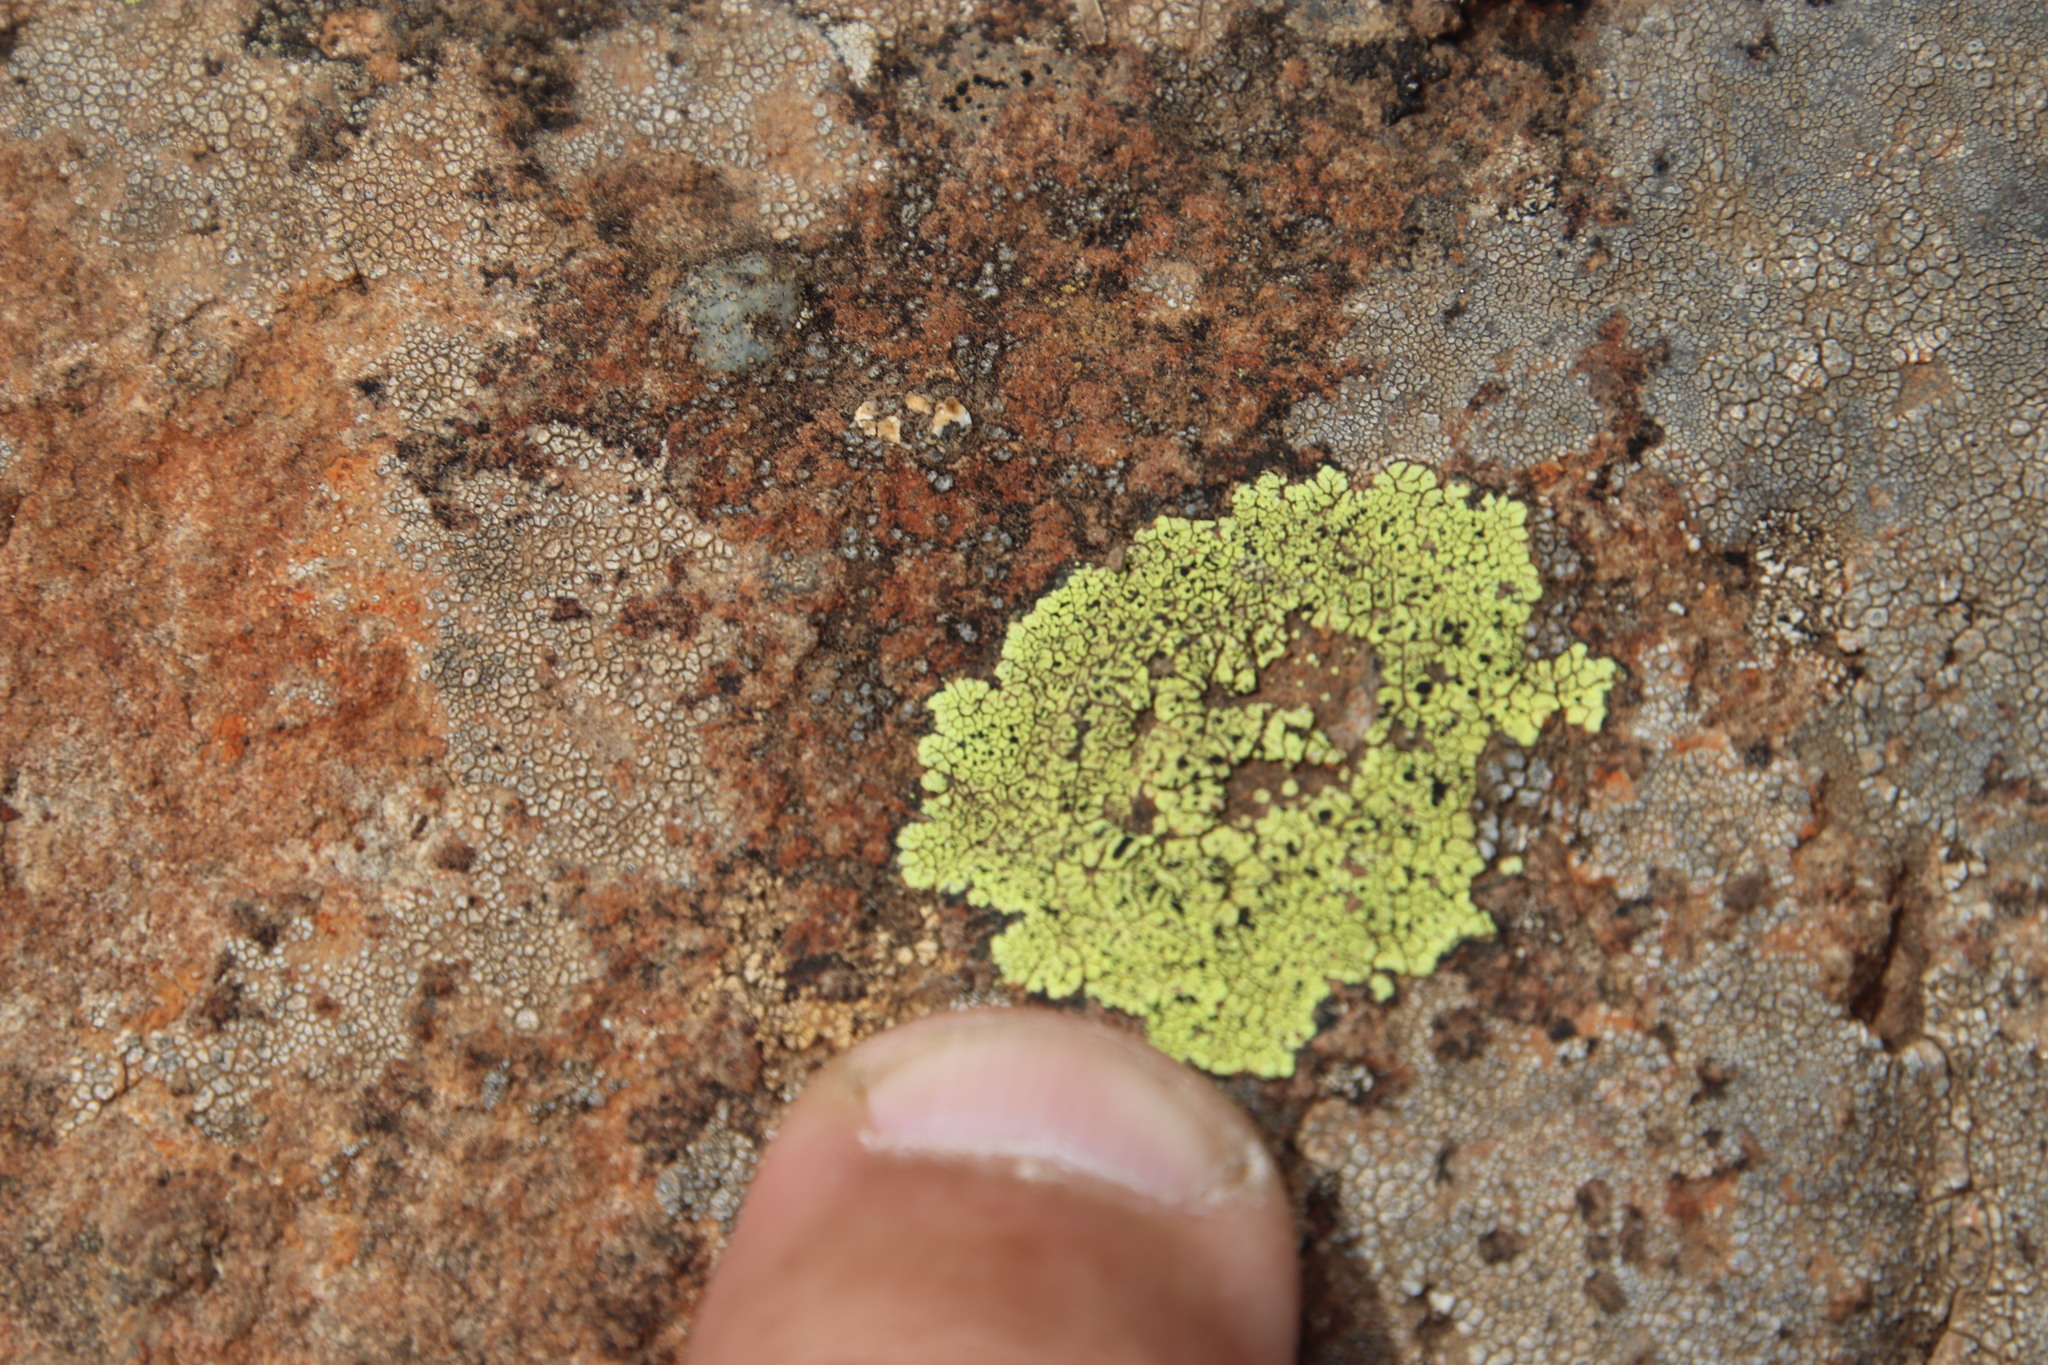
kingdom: Fungi
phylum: Ascomycota
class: Lecanoromycetes
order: Rhizocarpales
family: Rhizocarpaceae
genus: Rhizocarpon
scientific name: Rhizocarpon lecanorinum
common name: Crescent map lichen
